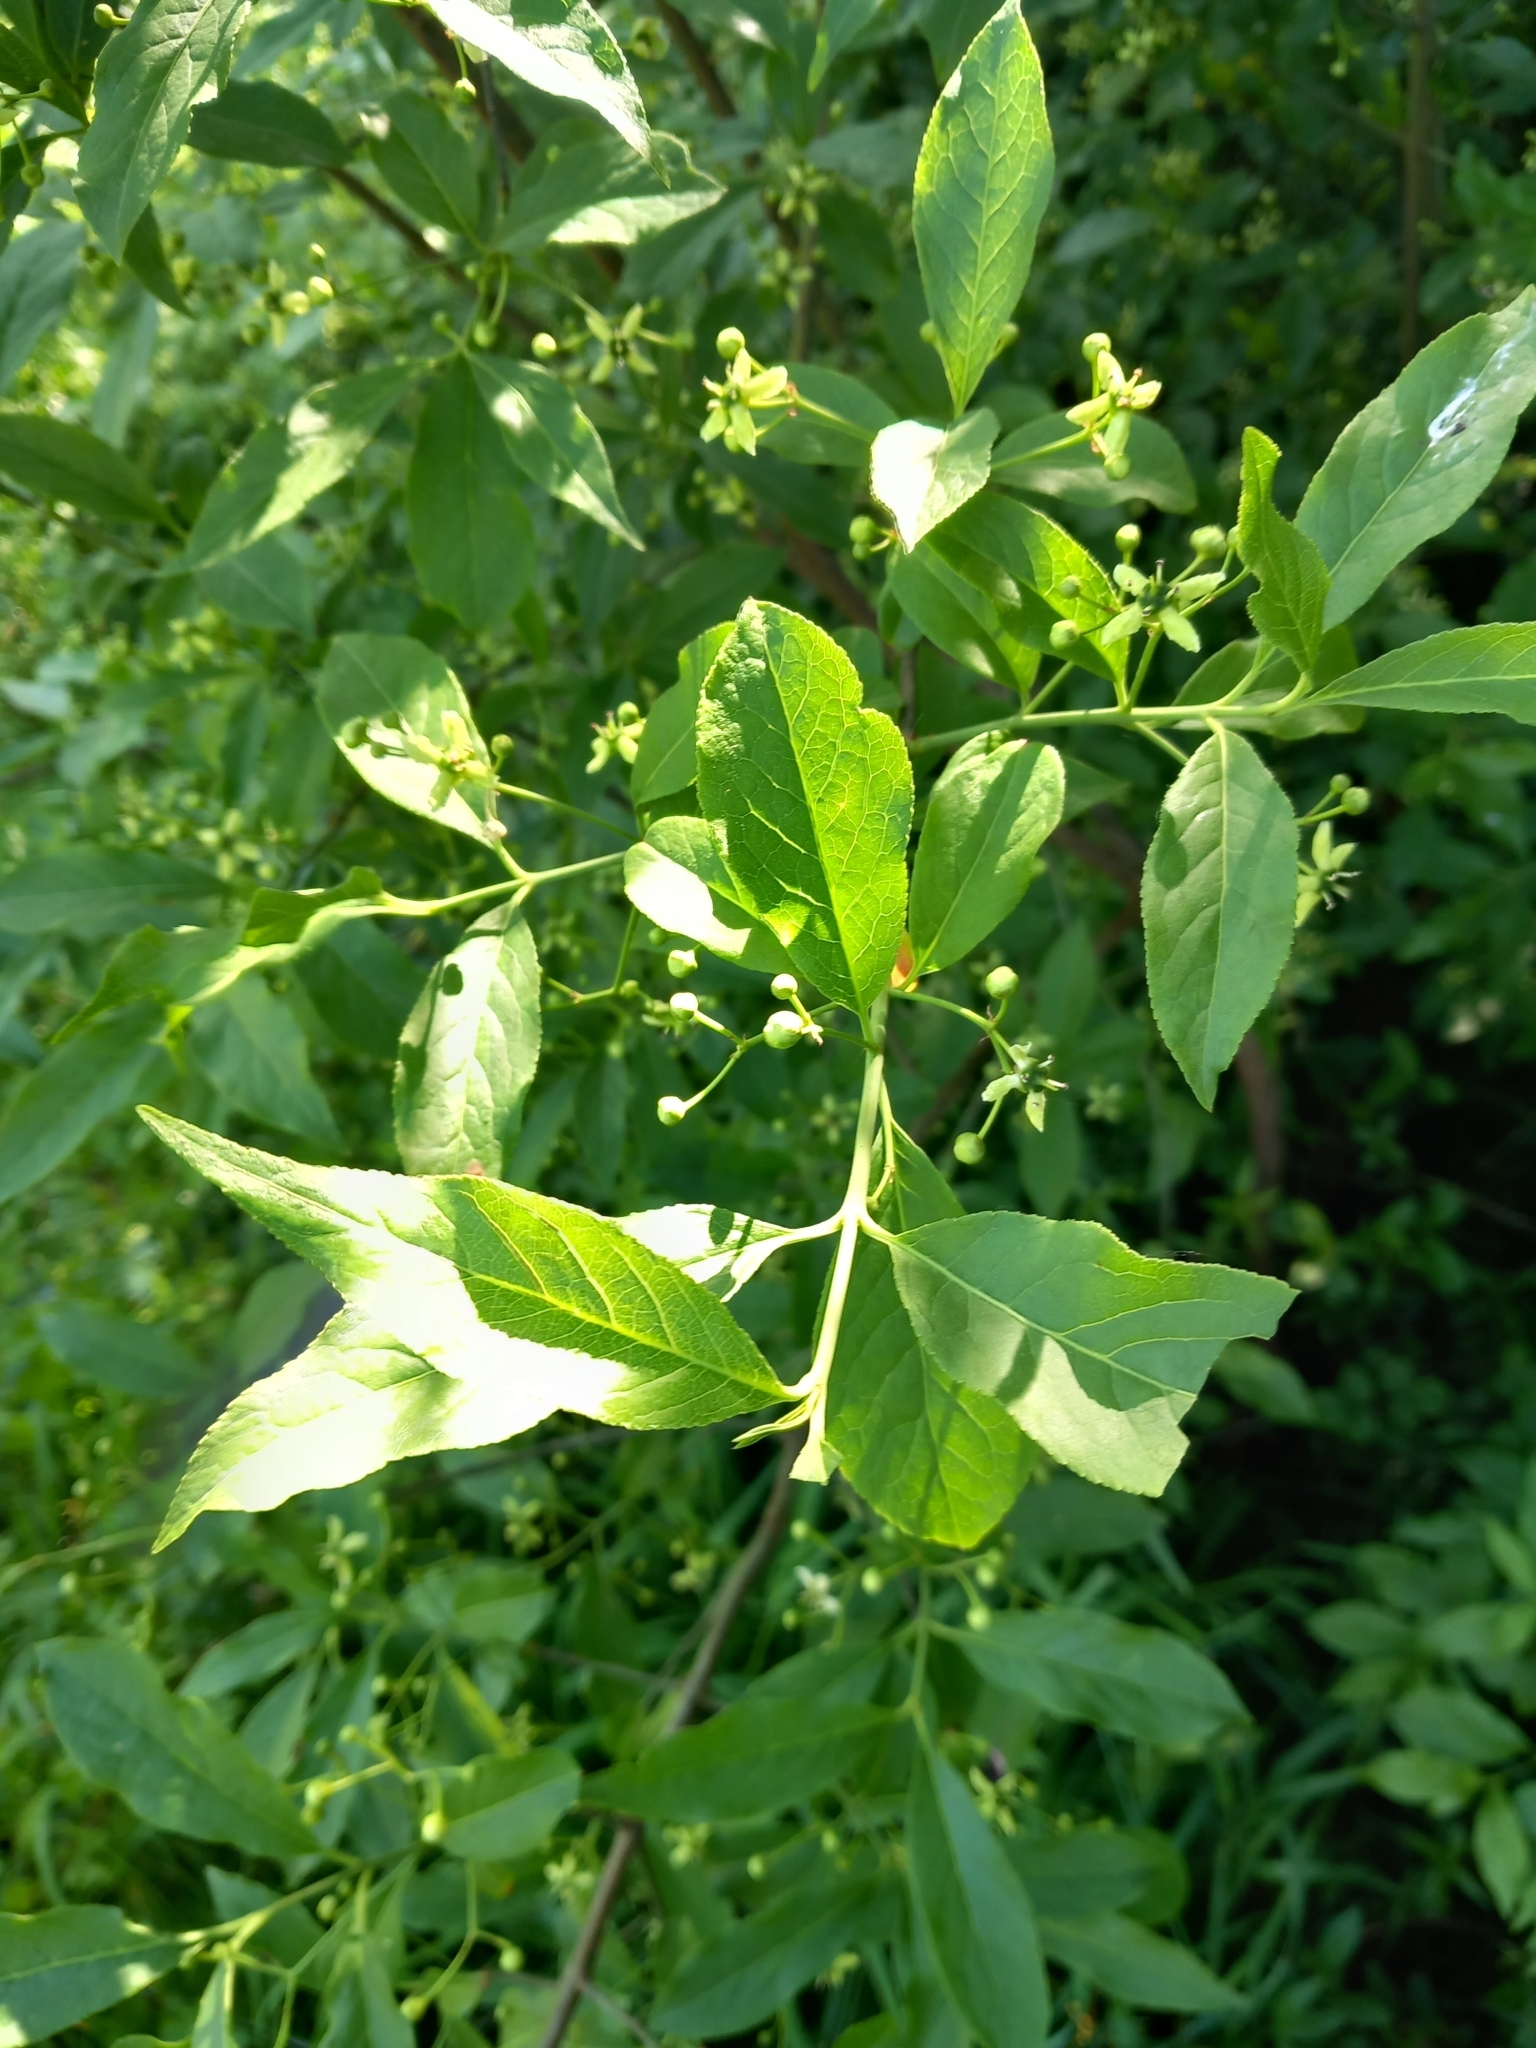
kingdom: Plantae
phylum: Tracheophyta
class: Magnoliopsida
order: Celastrales
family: Celastraceae
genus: Euonymus
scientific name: Euonymus europaeus
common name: Spindle
